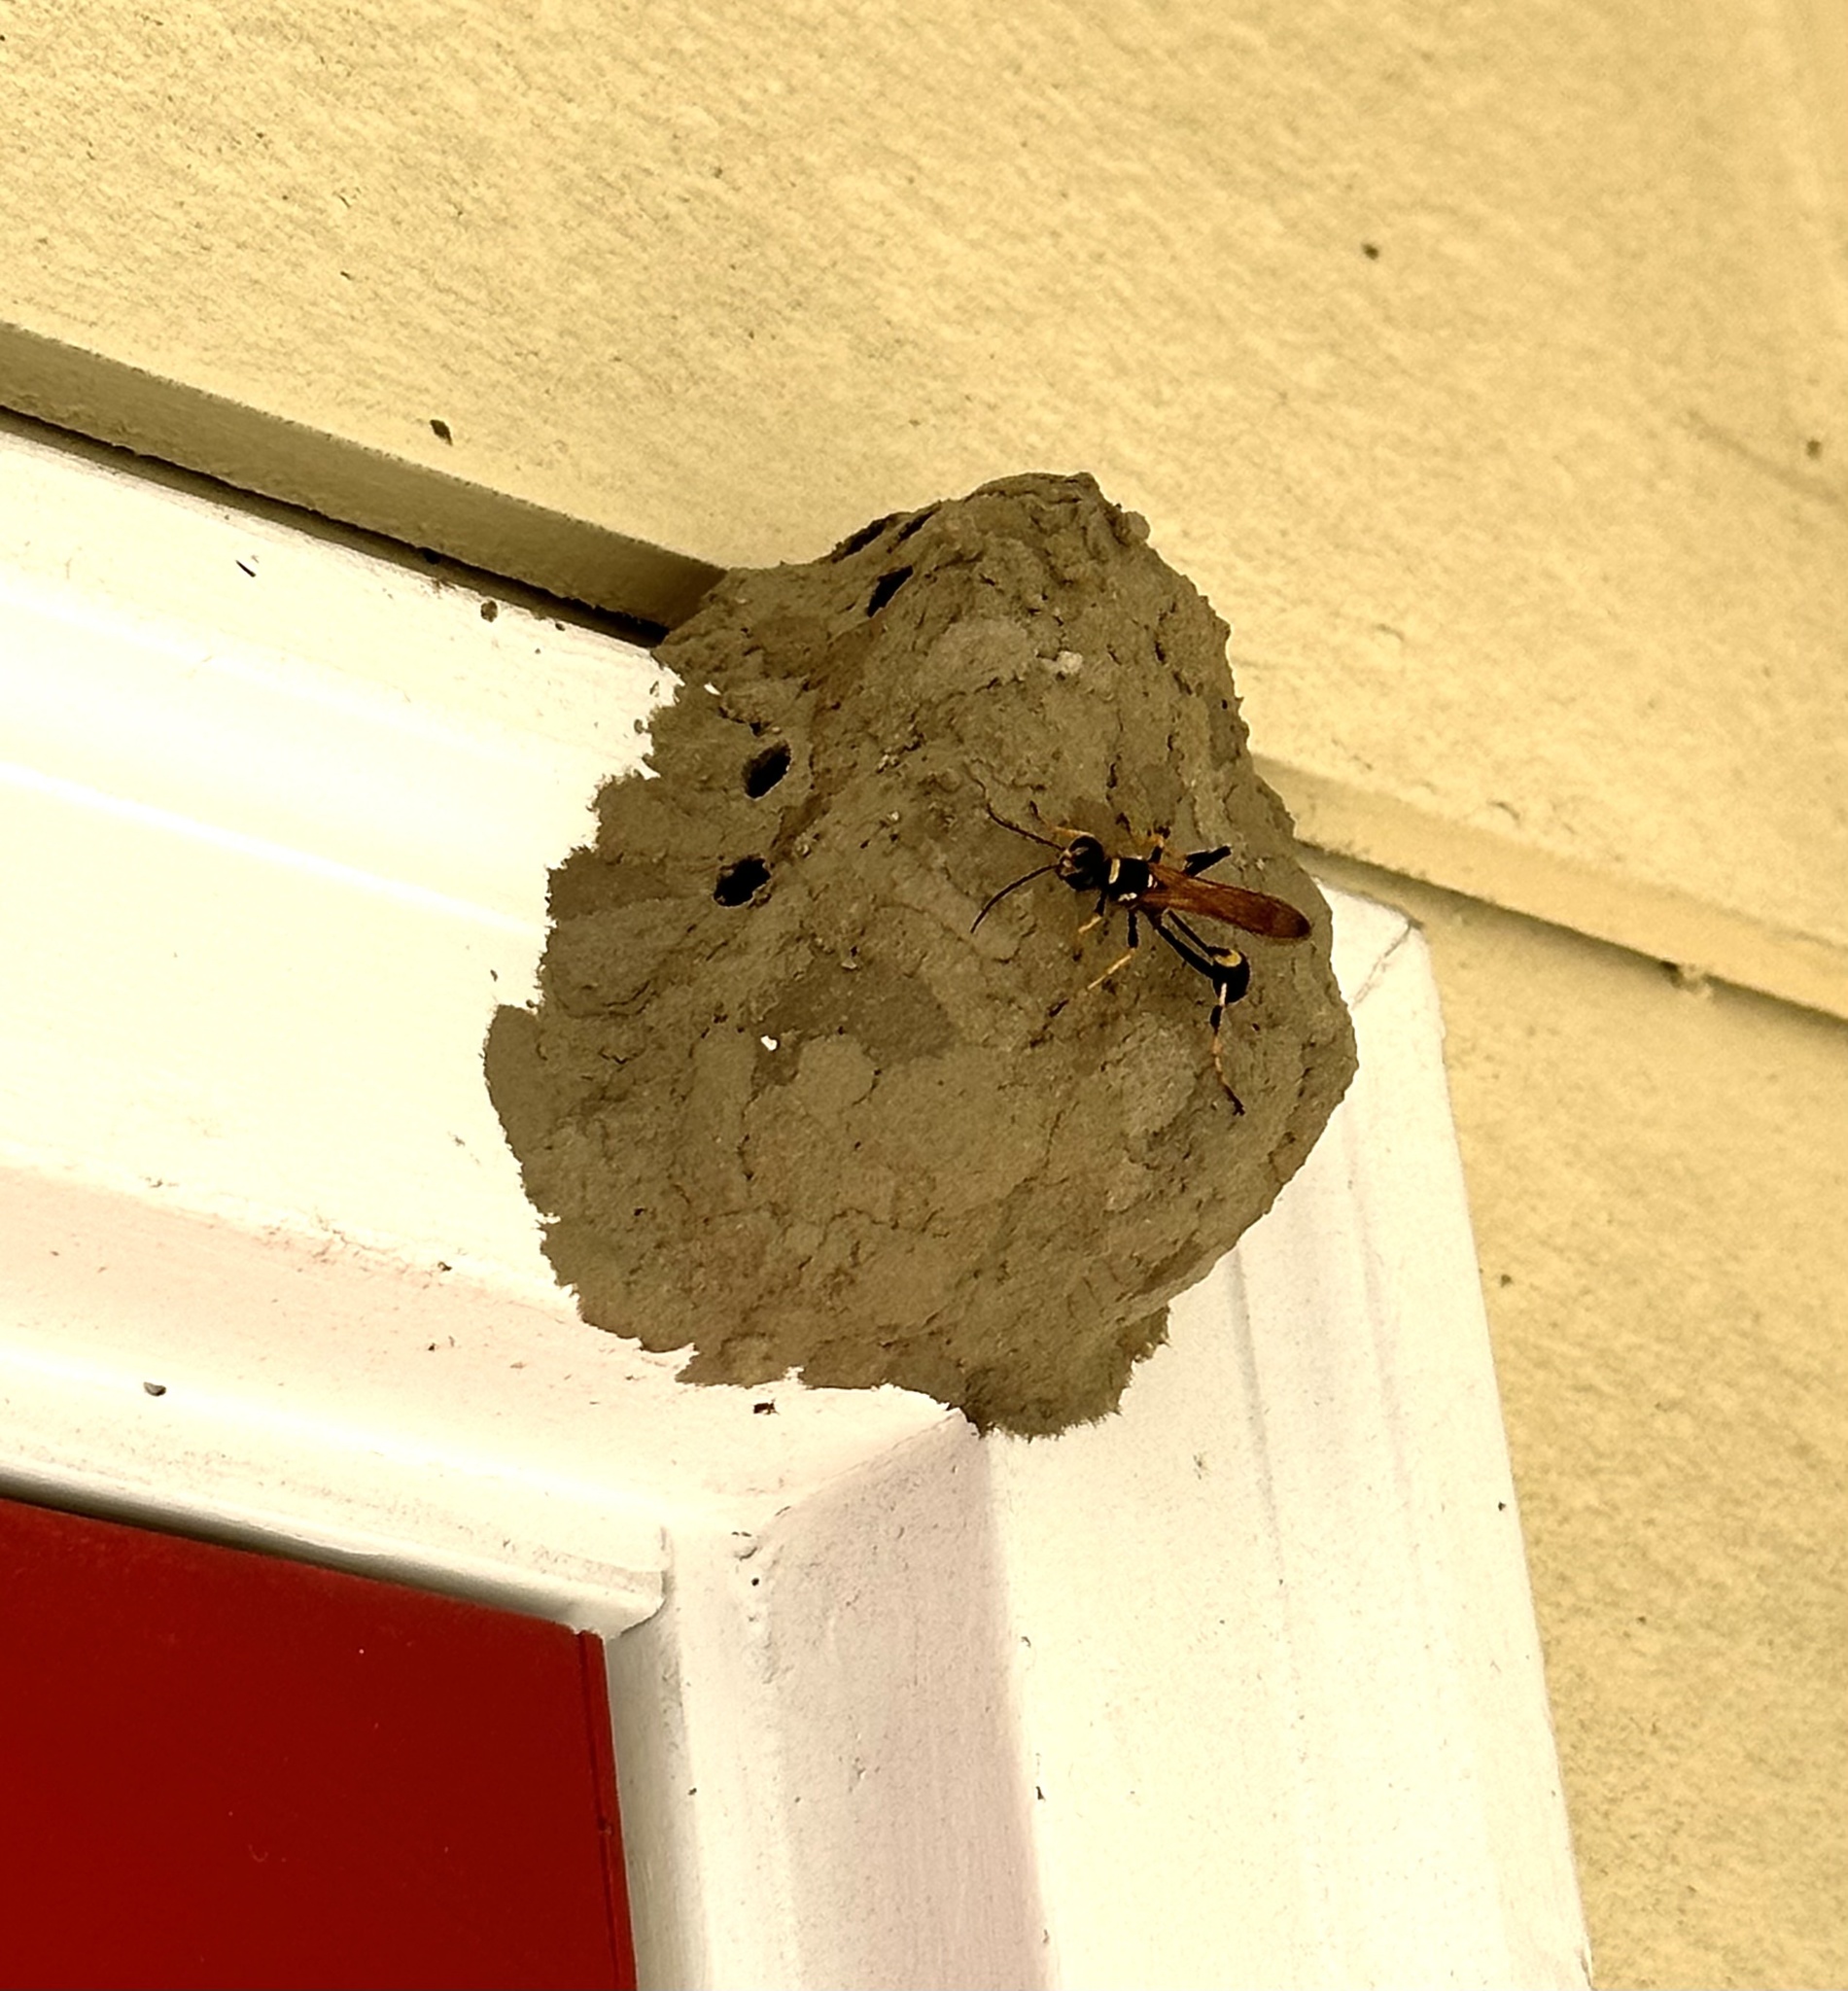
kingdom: Animalia
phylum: Arthropoda
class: Insecta
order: Hymenoptera
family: Sphecidae
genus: Sceliphron
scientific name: Sceliphron caementarium
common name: Mud dauber
